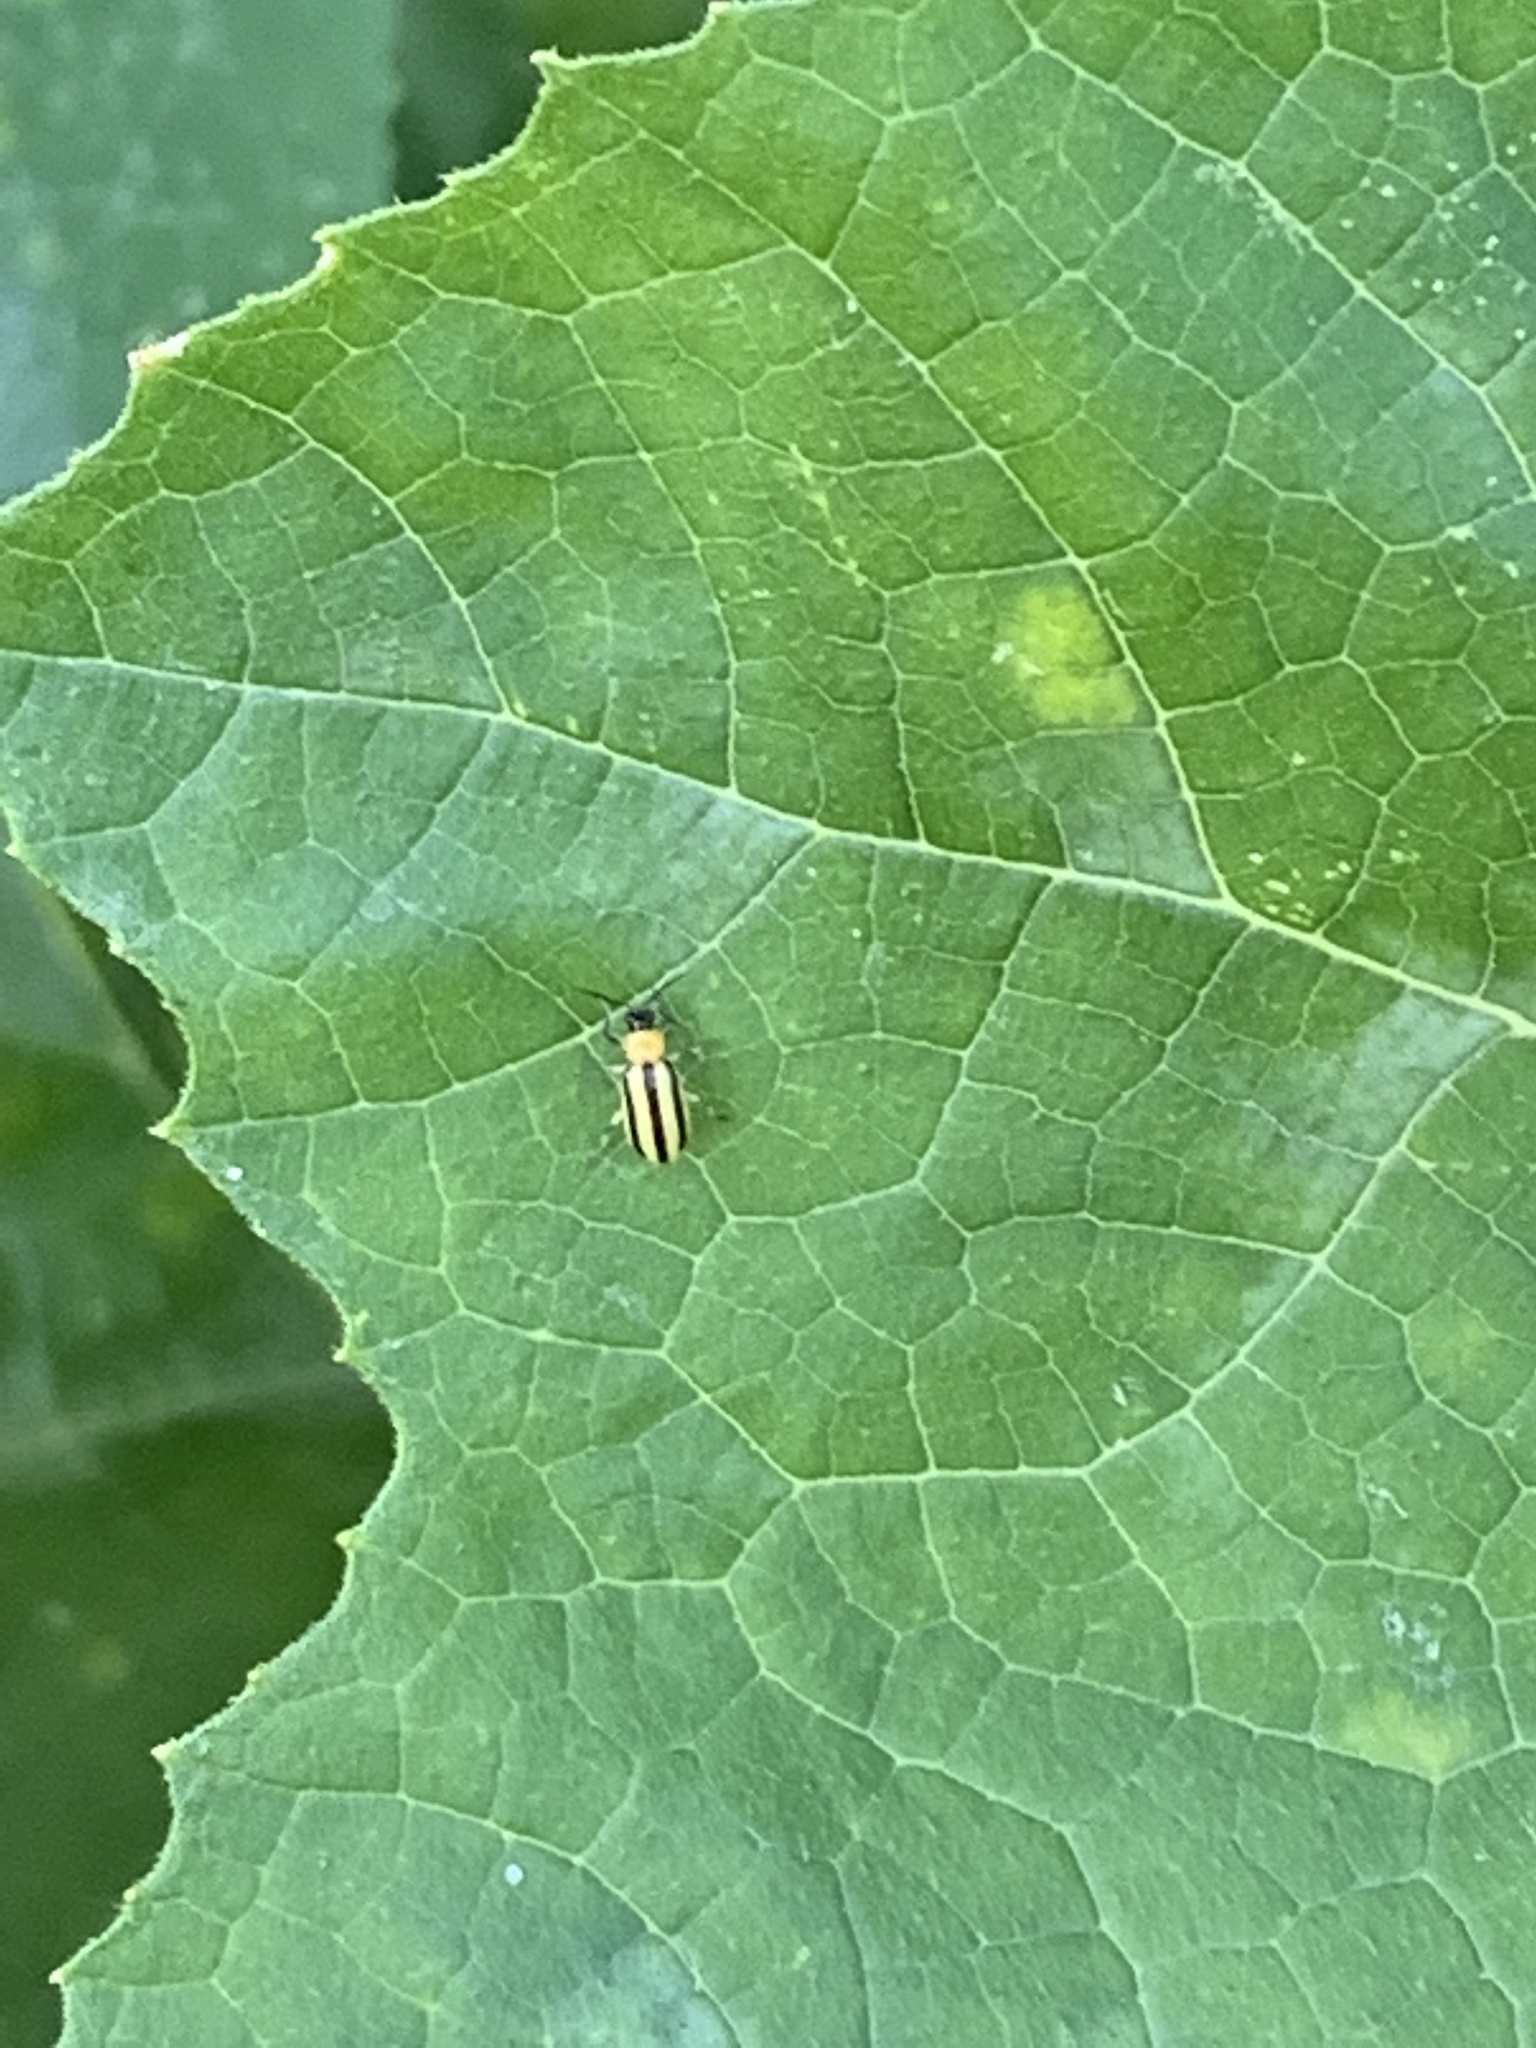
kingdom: Animalia
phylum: Arthropoda
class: Insecta
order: Coleoptera
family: Chrysomelidae
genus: Acalymma
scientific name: Acalymma vittatum
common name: Striped cucumber beetle
